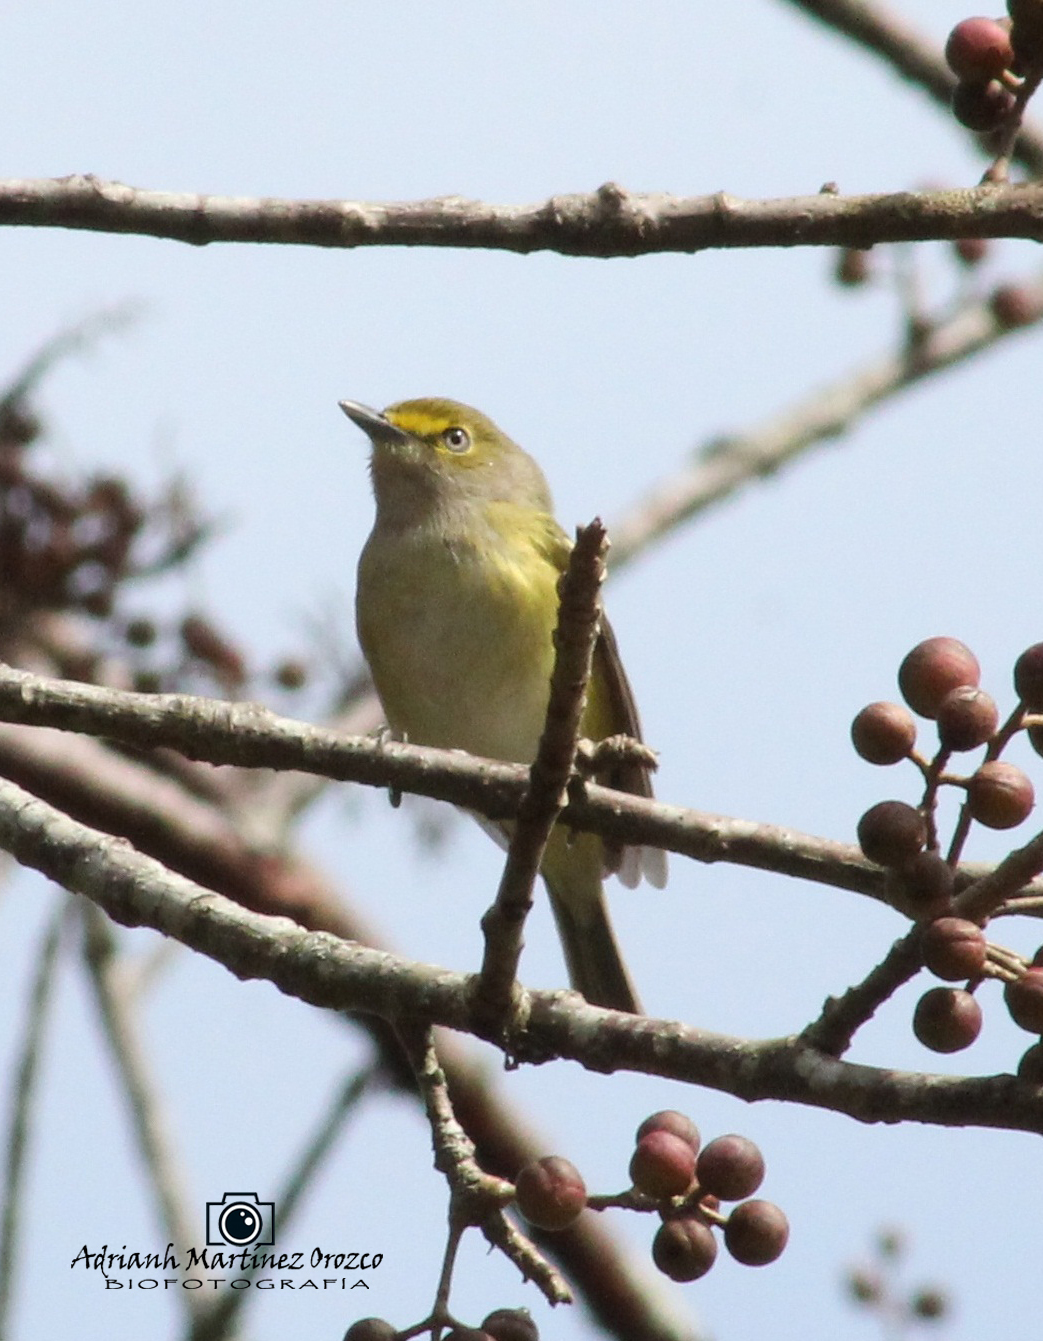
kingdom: Animalia
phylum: Chordata
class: Aves
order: Passeriformes
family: Vireonidae
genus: Vireo
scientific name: Vireo griseus
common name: White-eyed vireo
